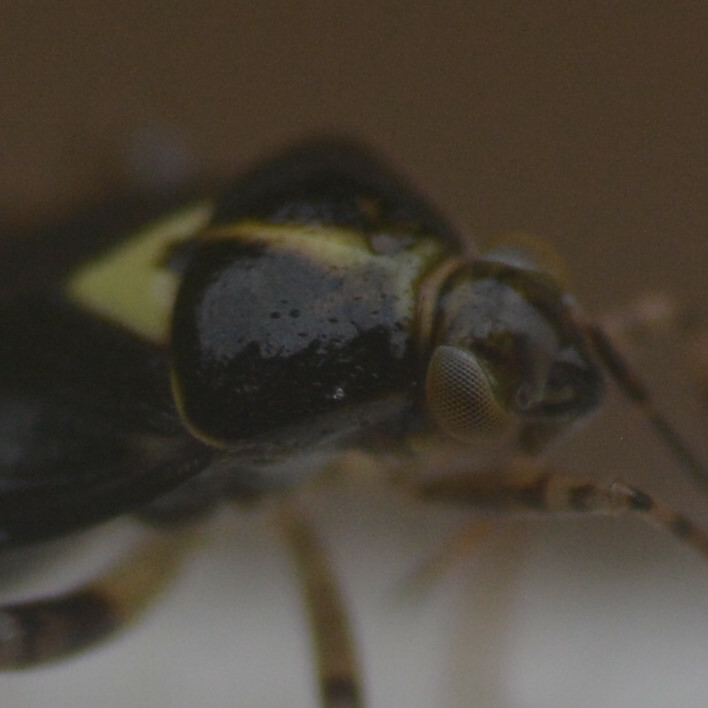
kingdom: Animalia
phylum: Arthropoda
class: Insecta
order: Hemiptera
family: Miridae
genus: Liocoris
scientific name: Liocoris tripustulatus
